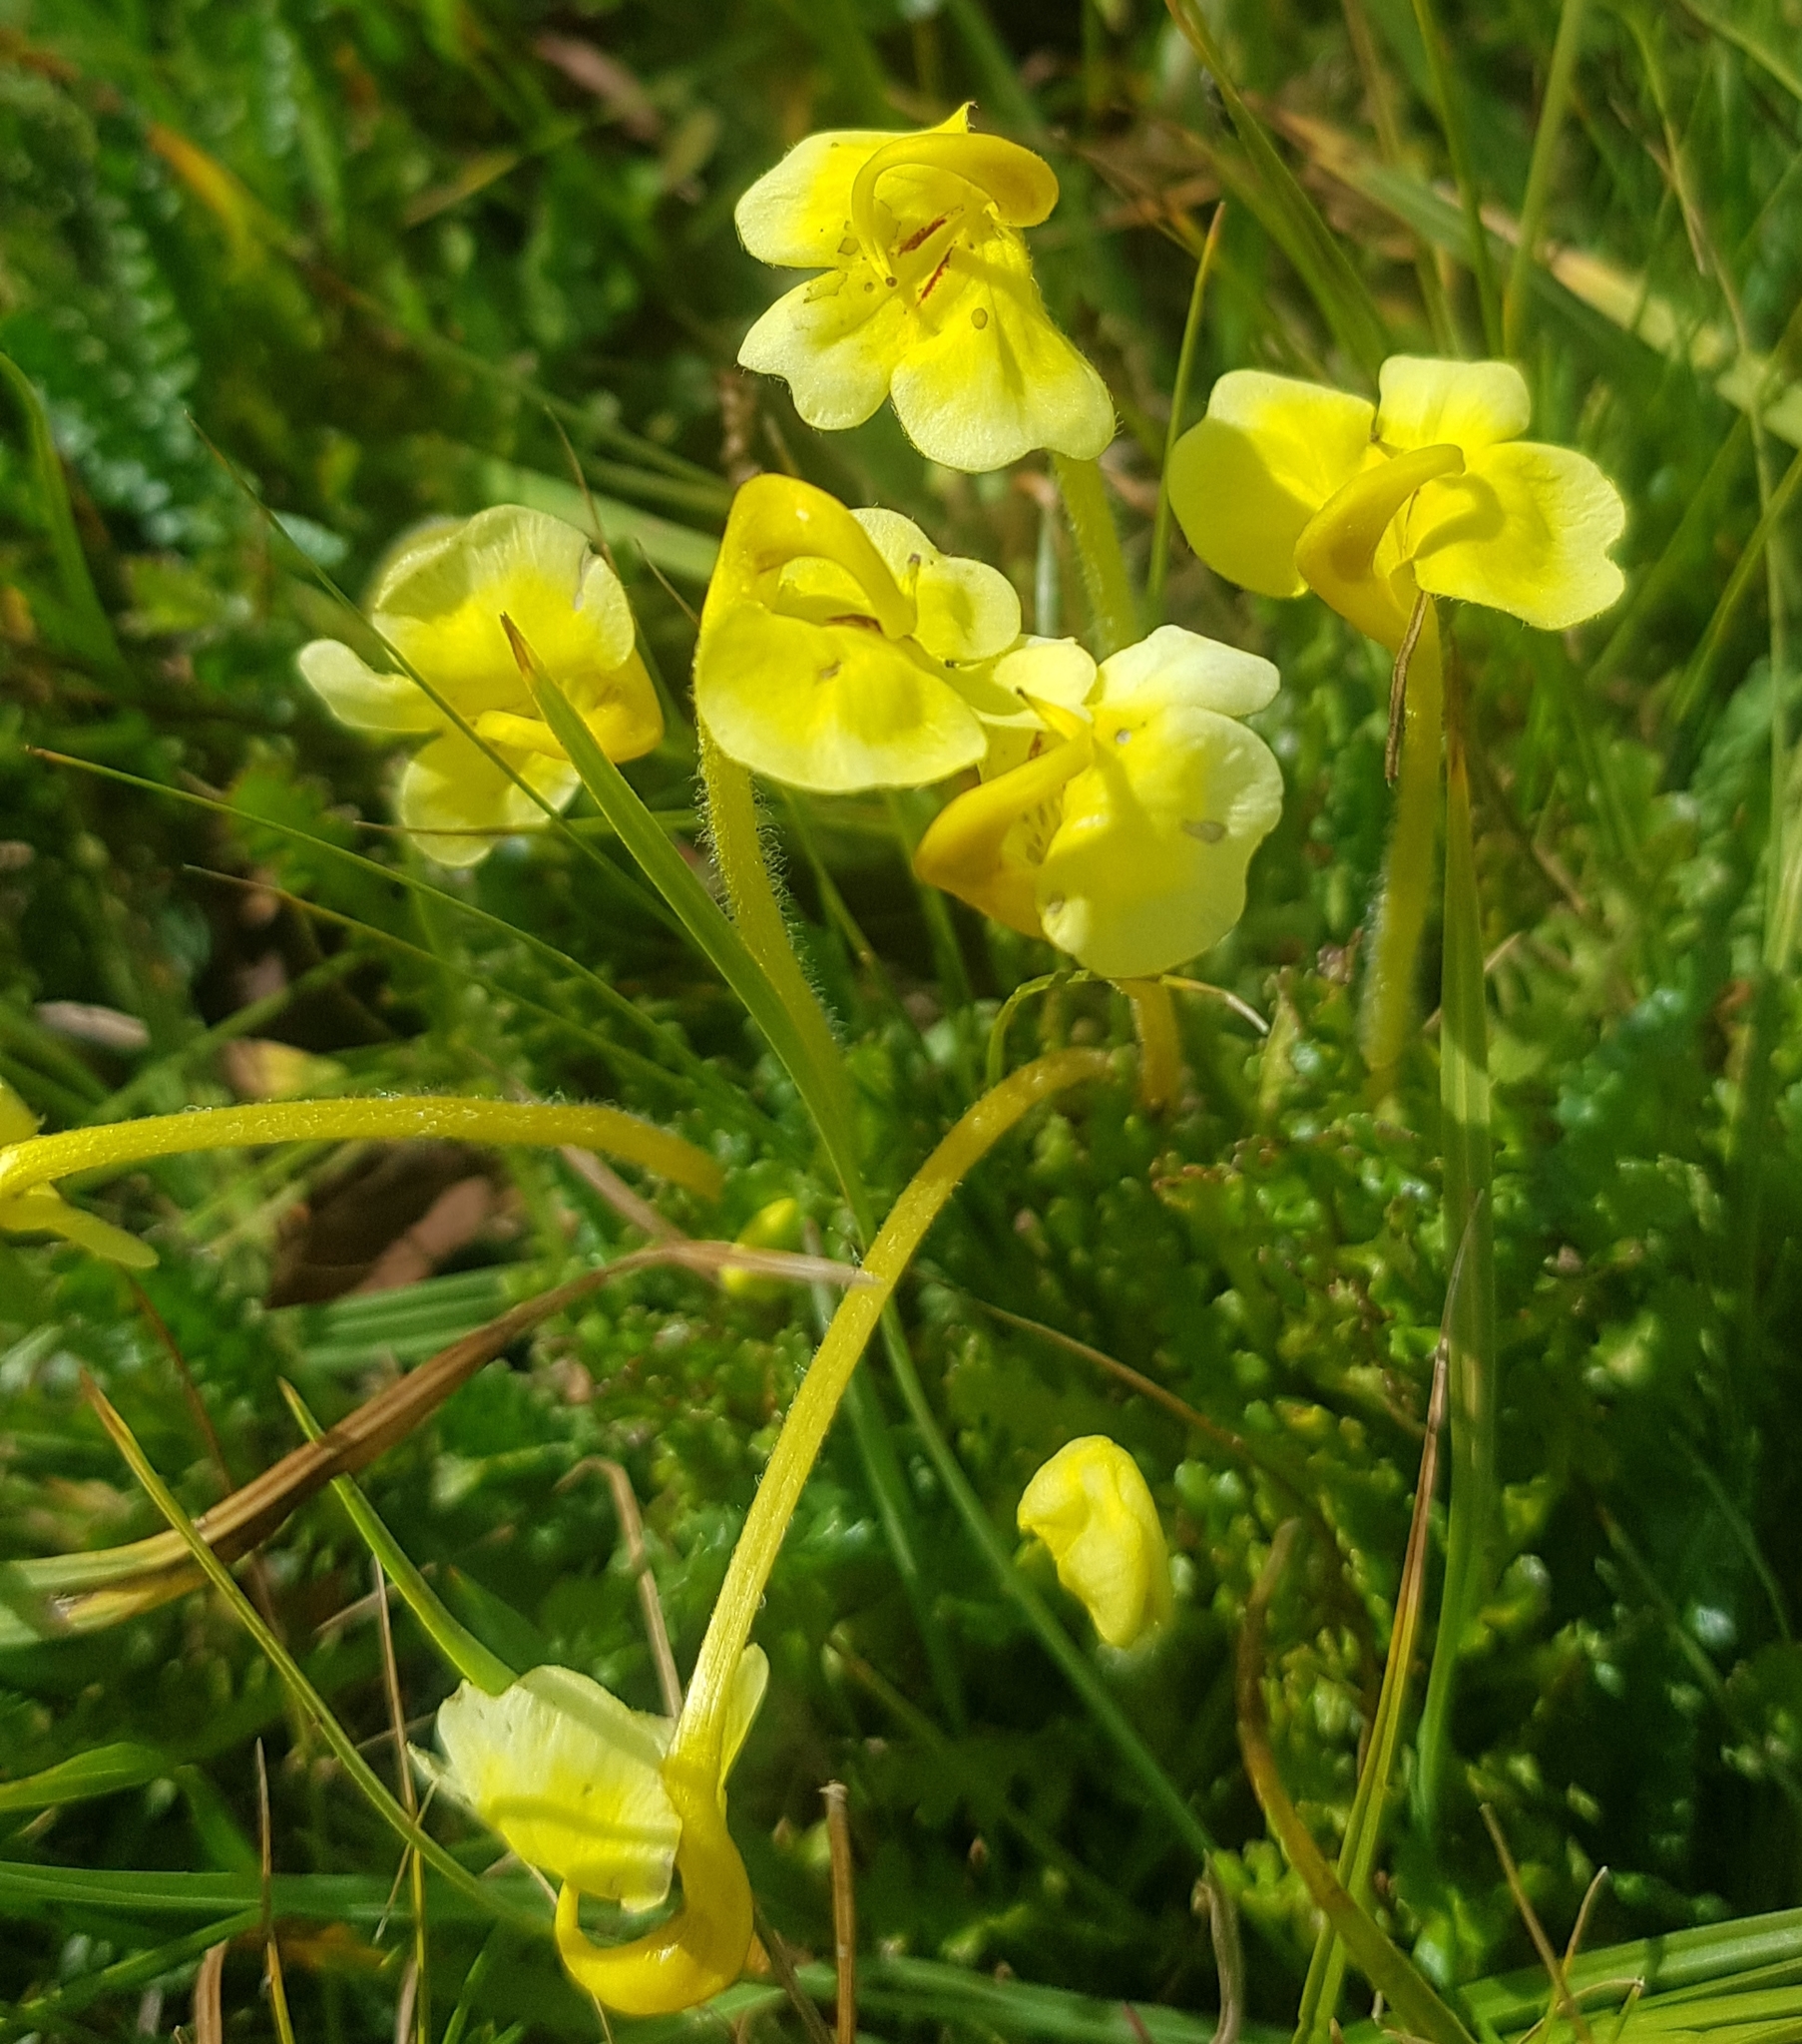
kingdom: Plantae
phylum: Tracheophyta
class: Magnoliopsida
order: Lamiales
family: Orobanchaceae
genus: Pedicularis
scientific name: Pedicularis longiflora
